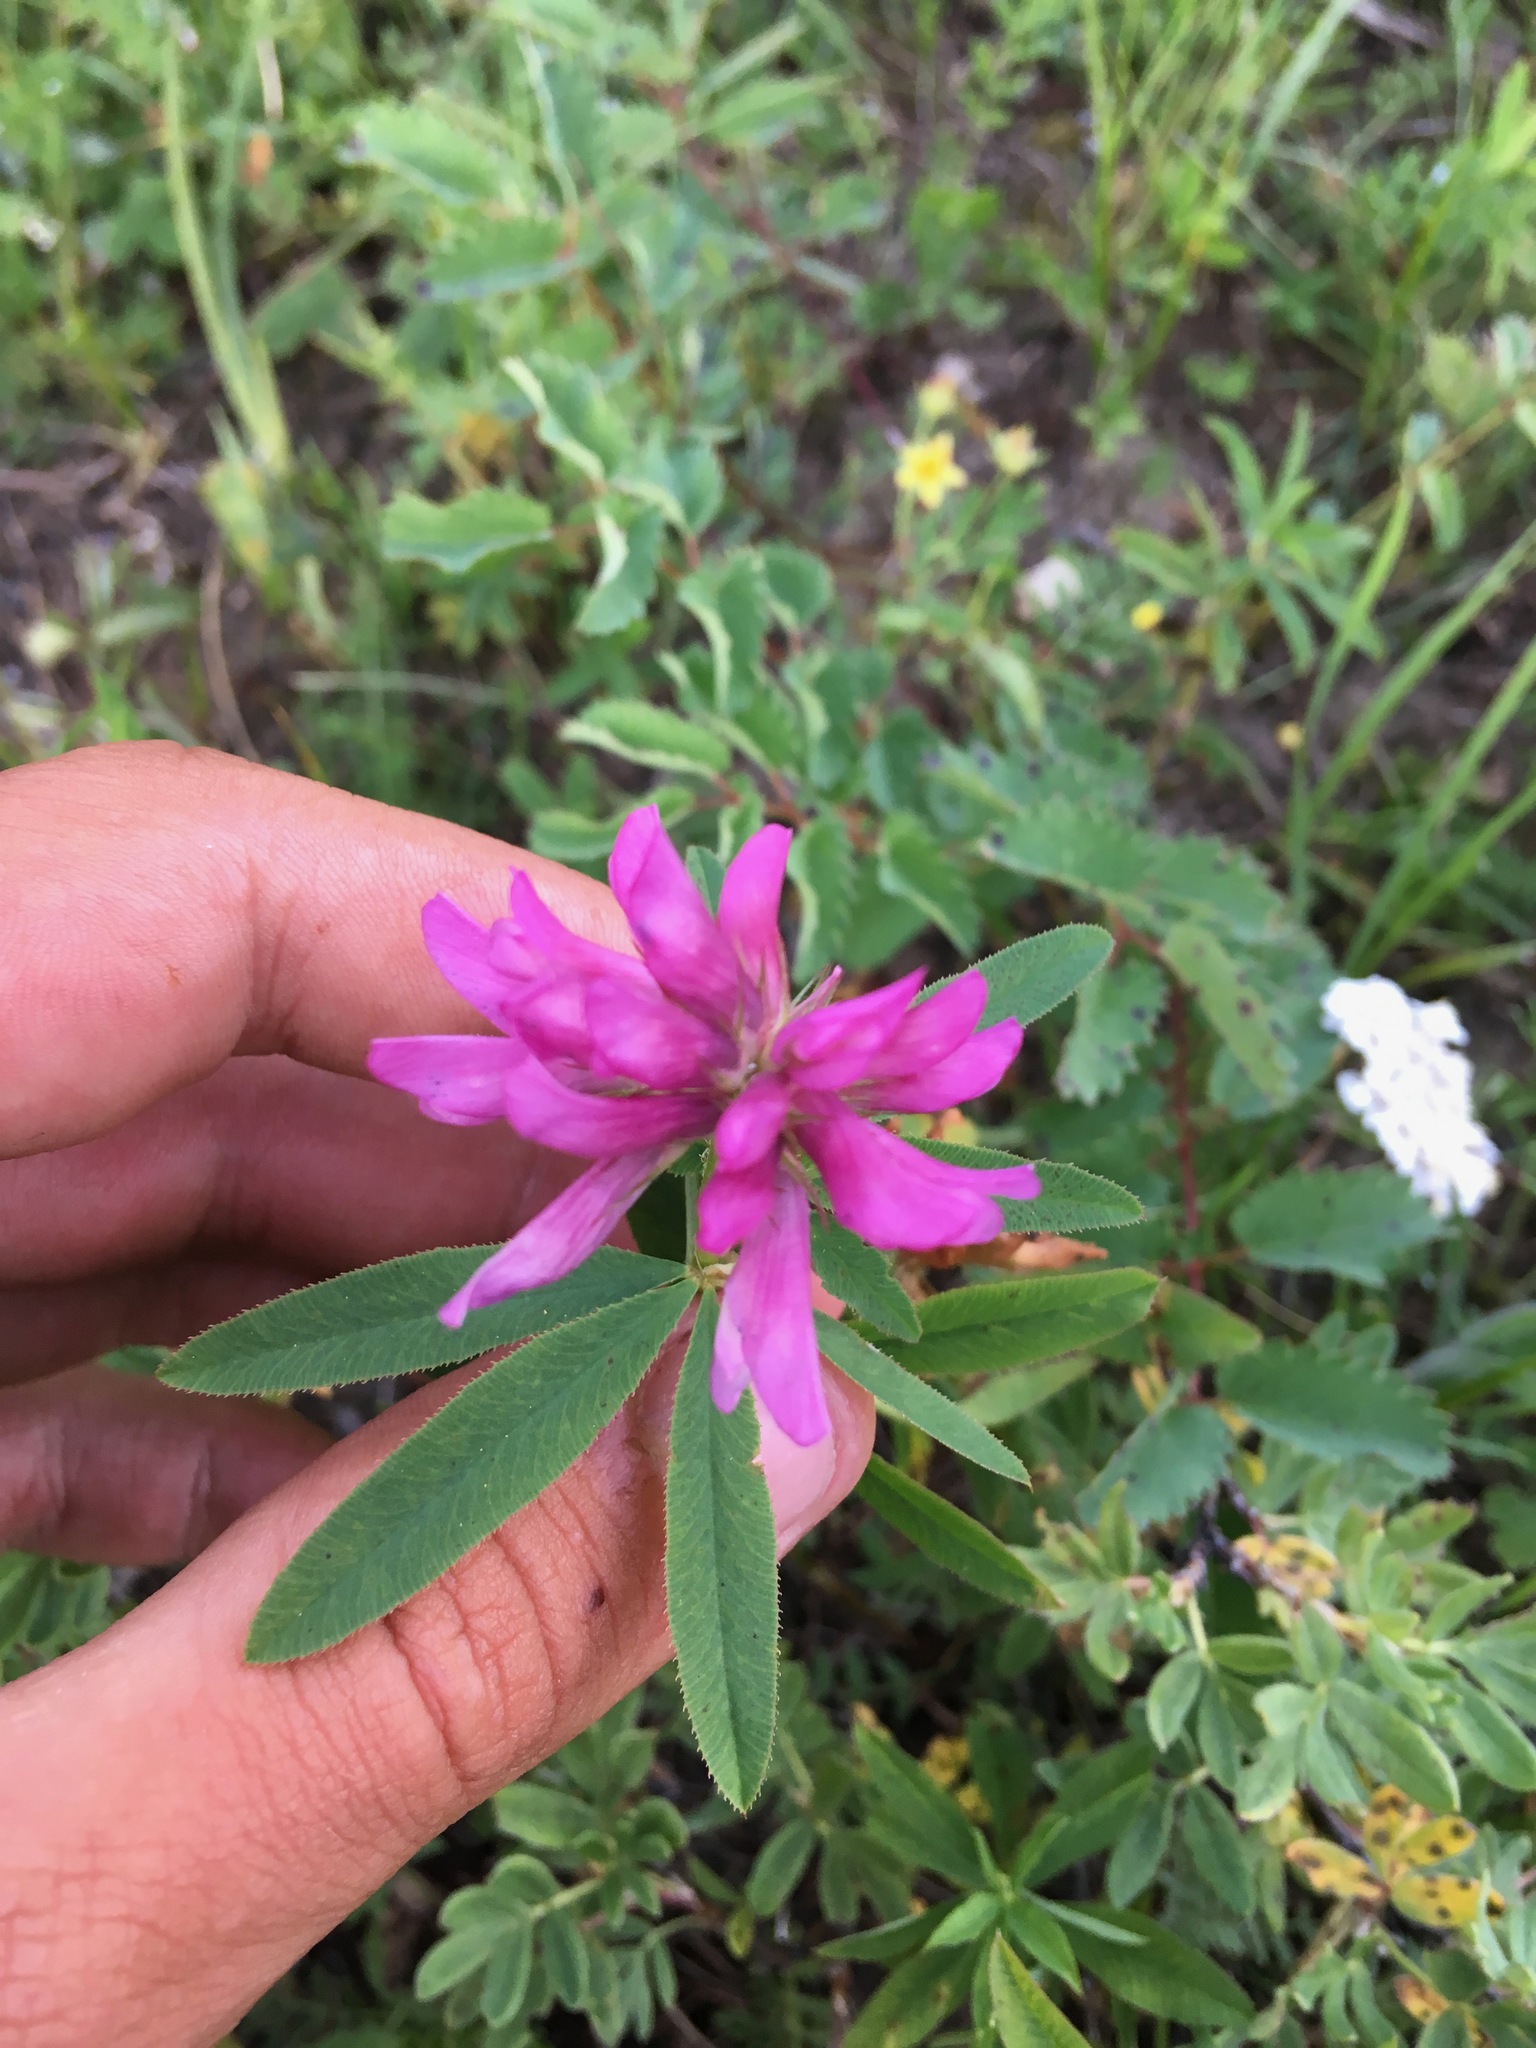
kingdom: Plantae
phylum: Tracheophyta
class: Magnoliopsida
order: Fabales
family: Fabaceae
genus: Trifolium
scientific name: Trifolium lupinaster
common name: Lupine clover
